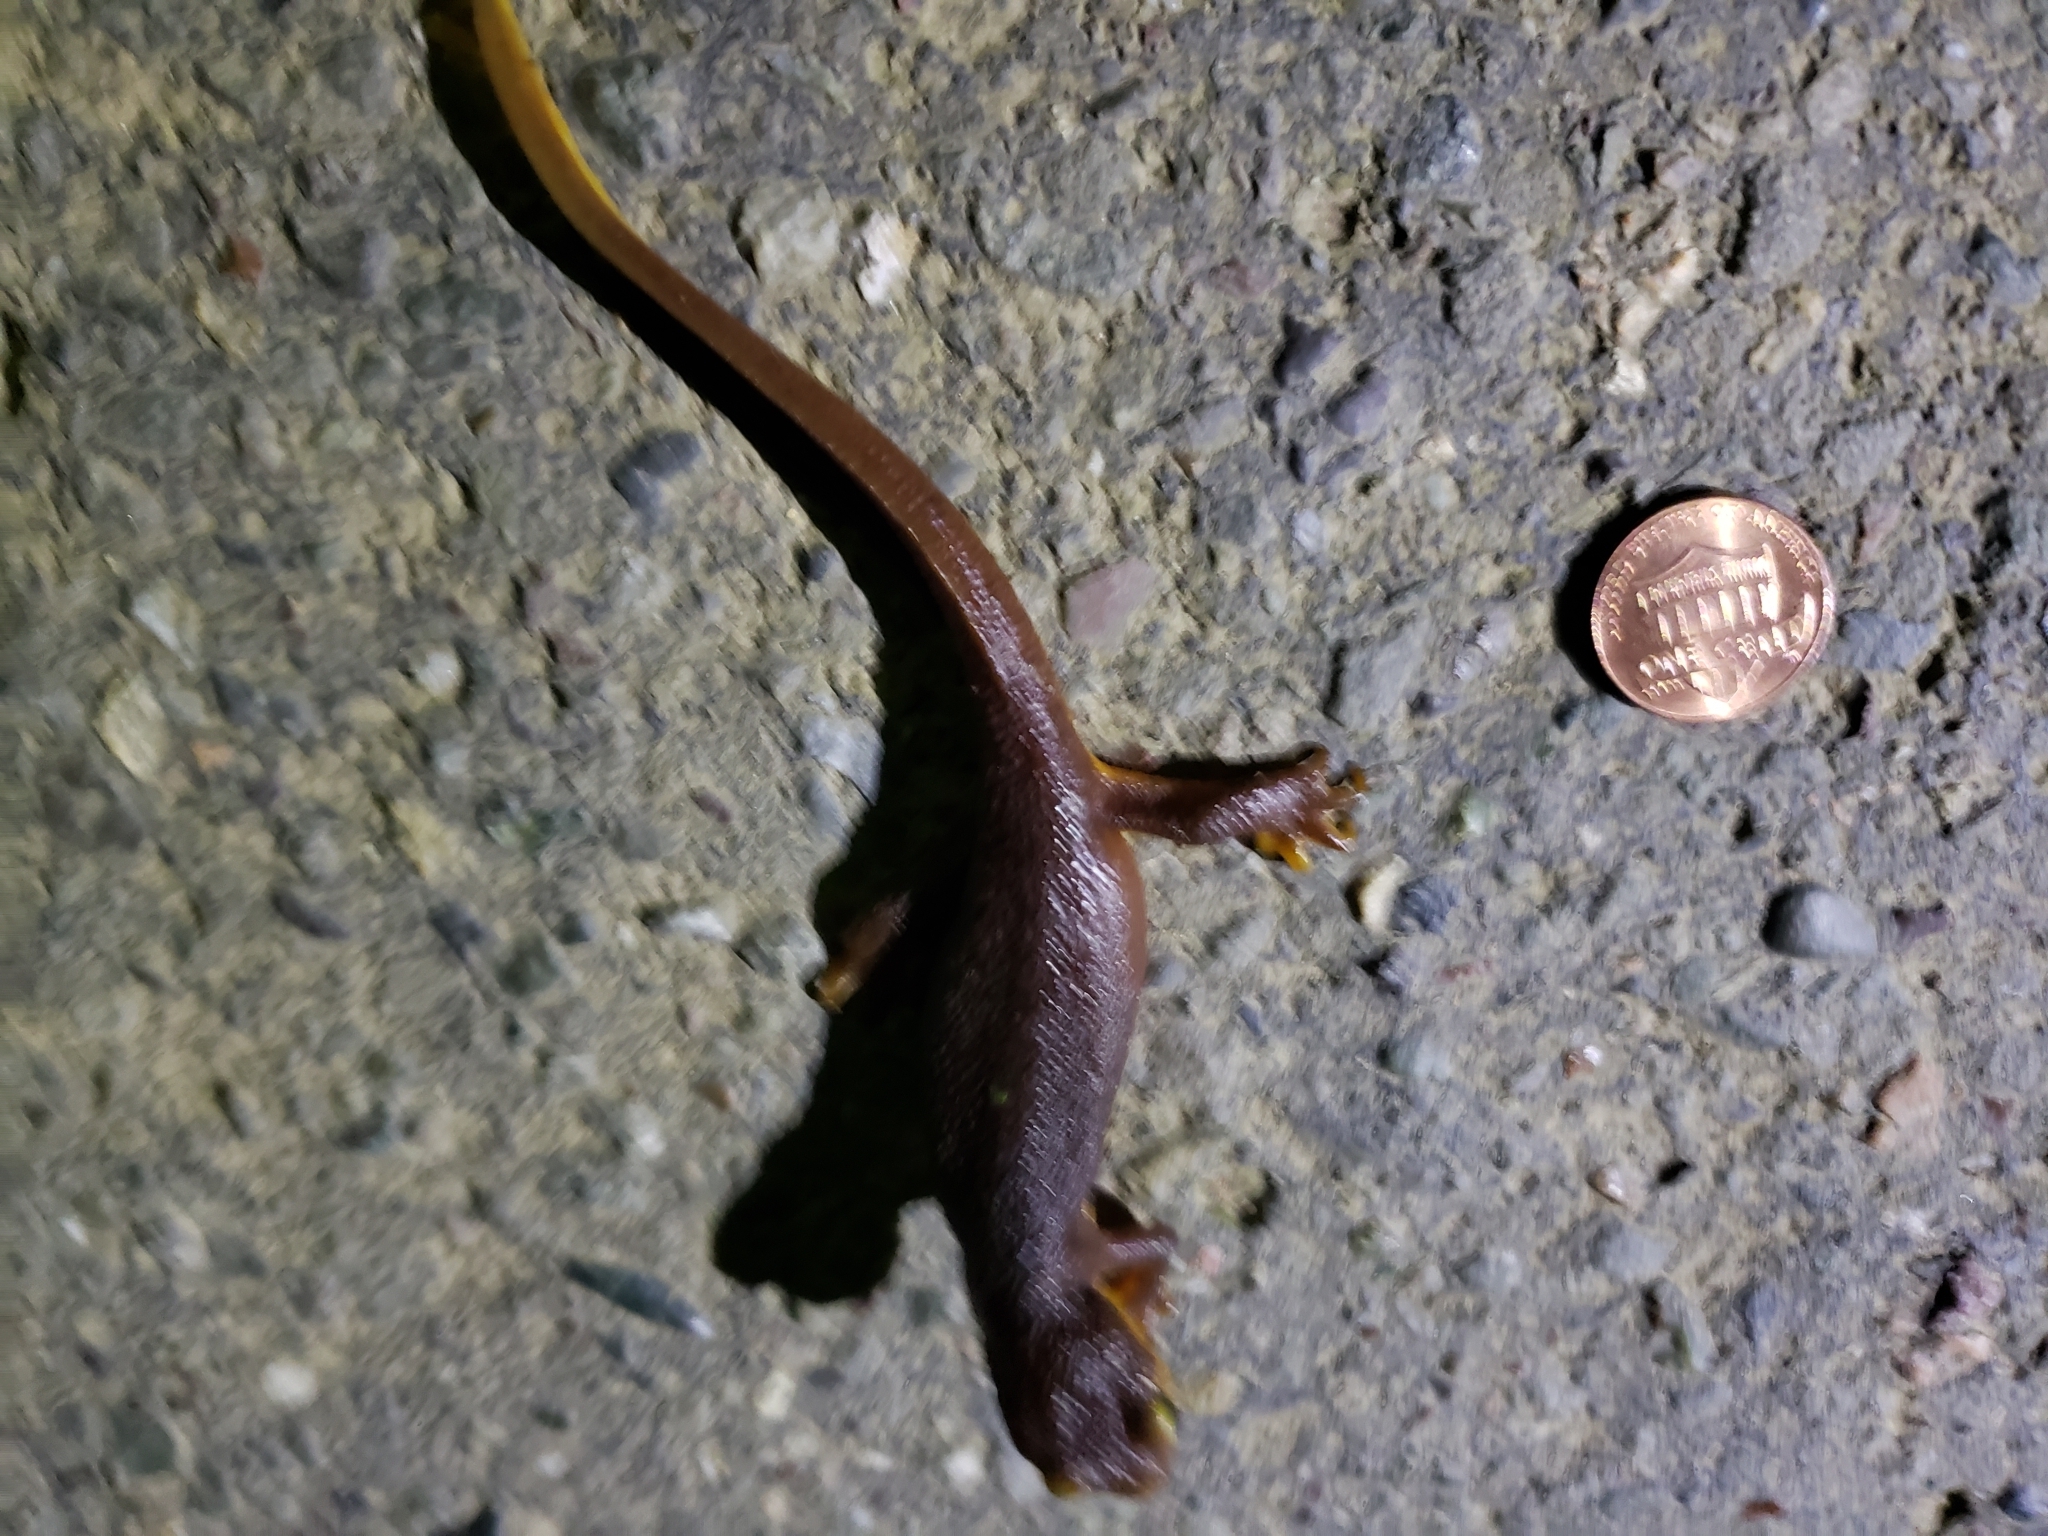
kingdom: Animalia
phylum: Chordata
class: Amphibia
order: Caudata
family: Salamandridae
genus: Taricha
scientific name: Taricha torosa
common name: California newt
